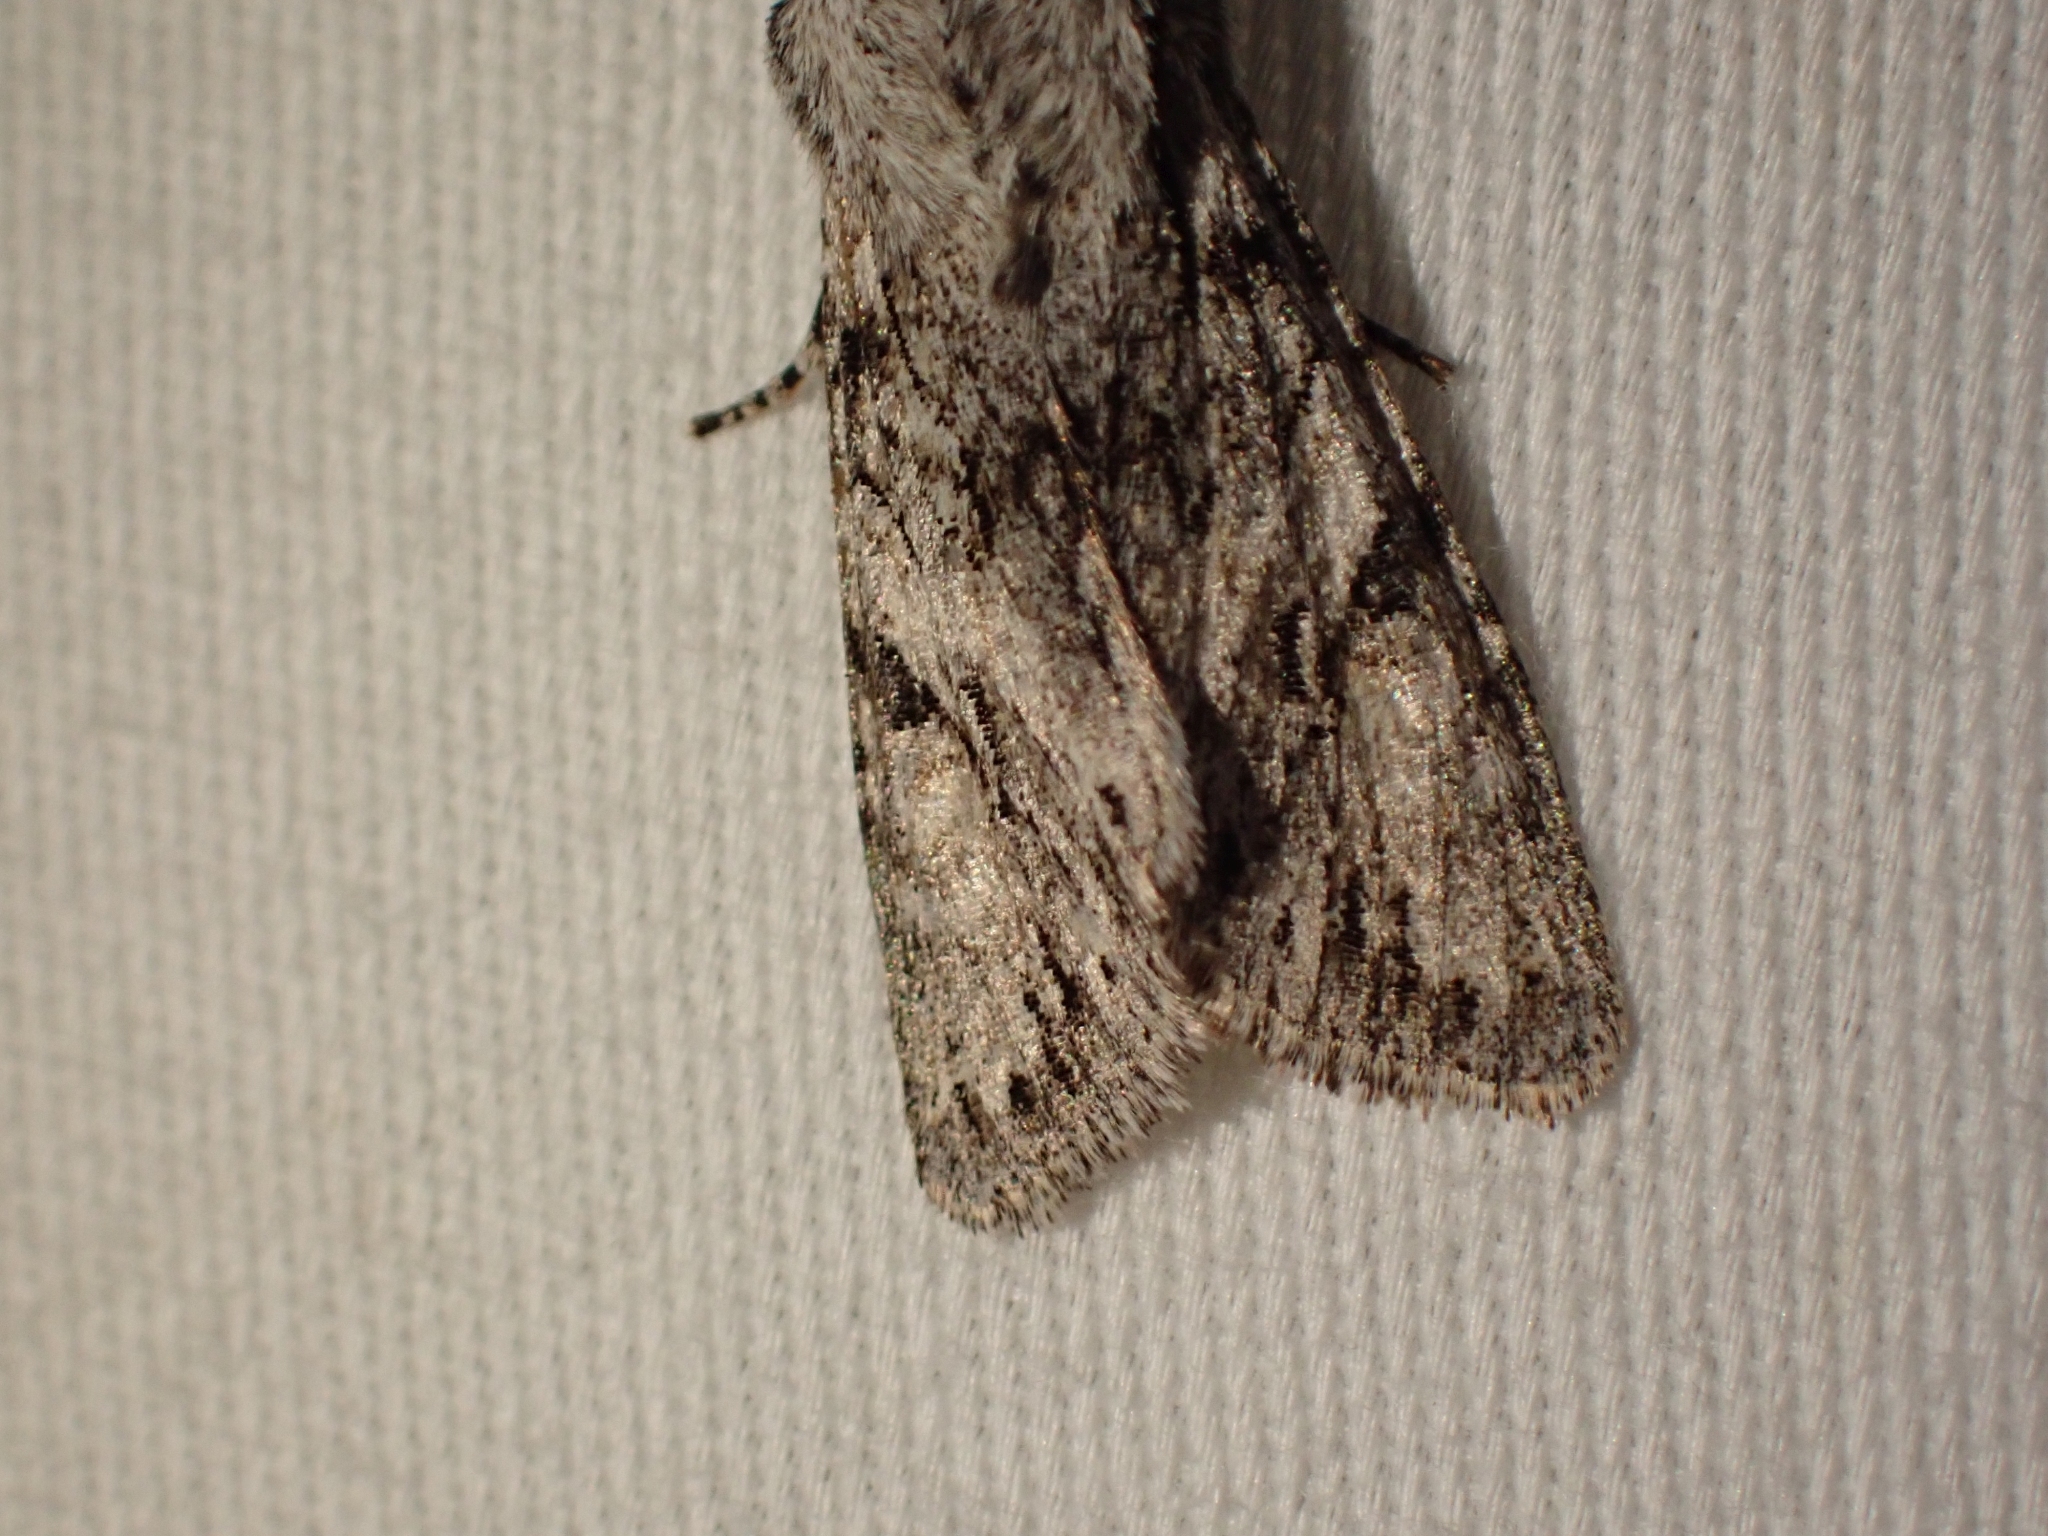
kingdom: Animalia
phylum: Arthropoda
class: Insecta
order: Lepidoptera
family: Noctuidae
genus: Egira
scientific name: Egira simplex
